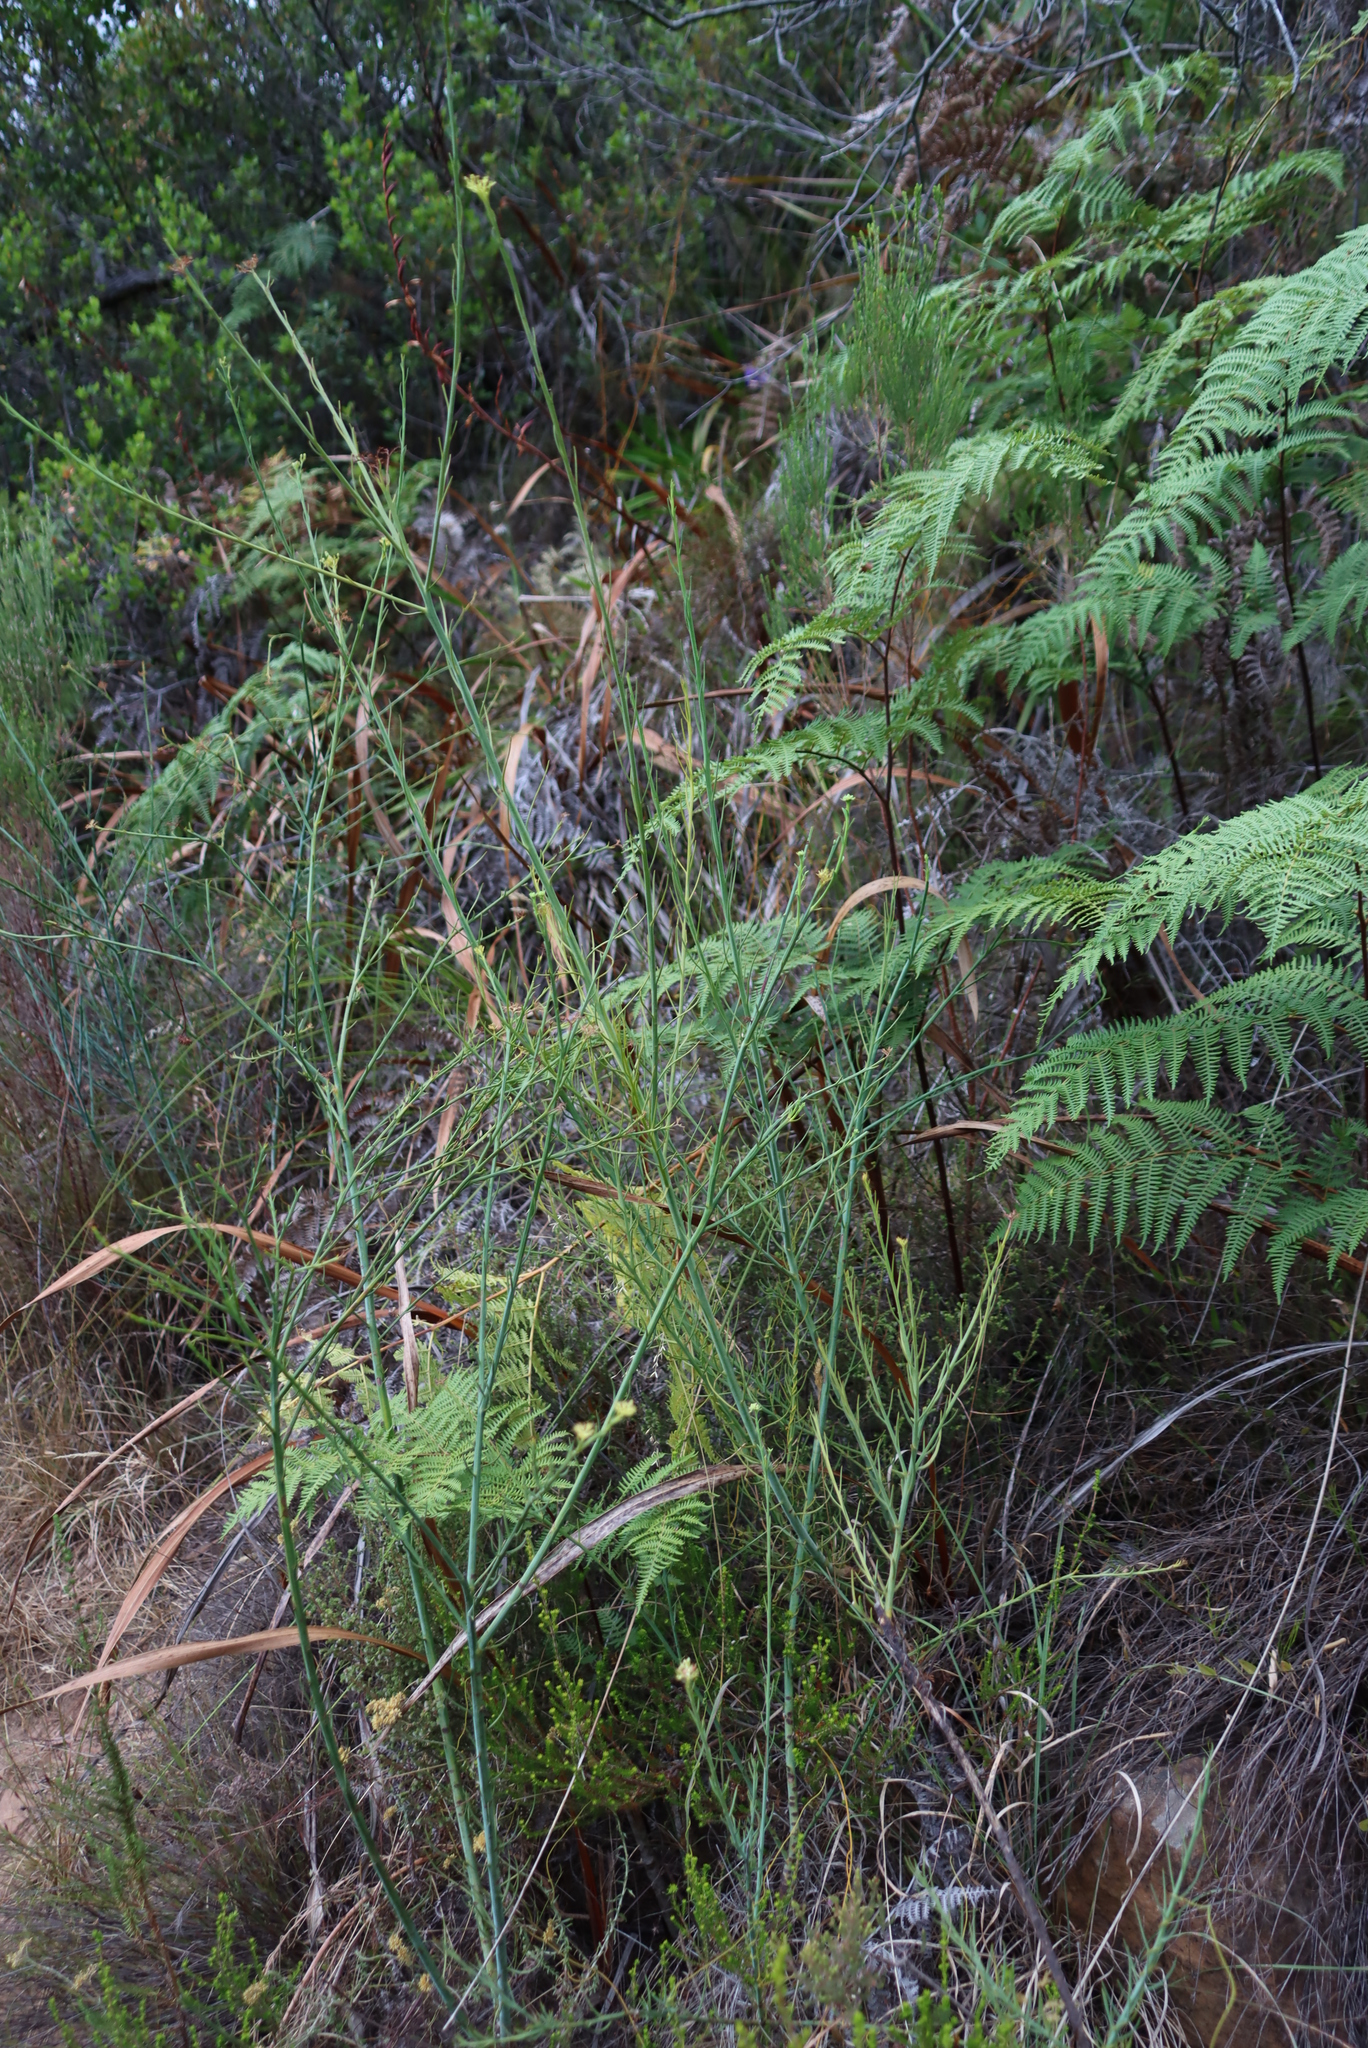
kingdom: Plantae
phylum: Tracheophyta
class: Magnoliopsida
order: Santalales
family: Thesiaceae
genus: Thesium
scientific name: Thesium strictum
